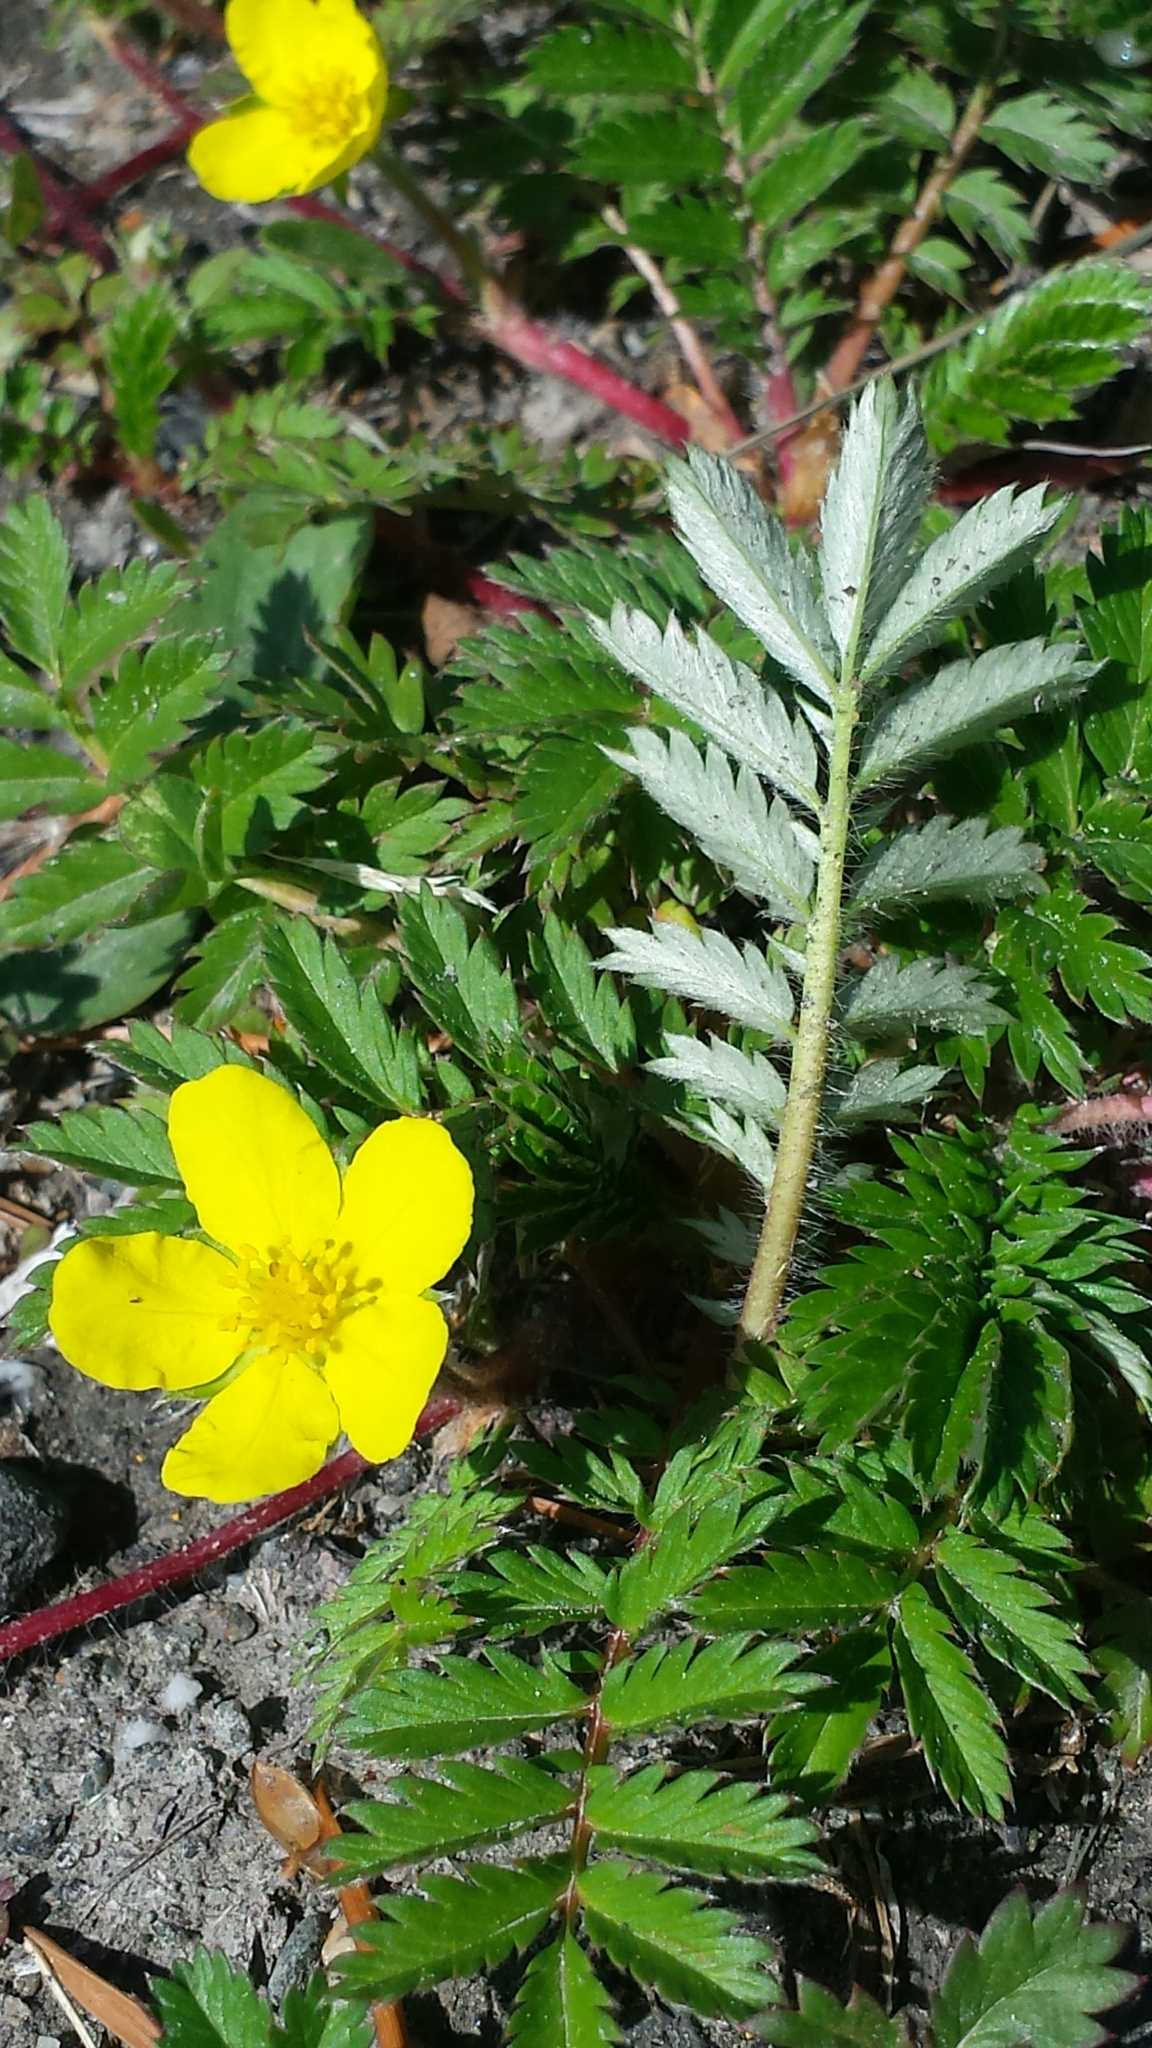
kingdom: Plantae
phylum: Tracheophyta
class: Magnoliopsida
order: Rosales
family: Rosaceae
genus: Argentina
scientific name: Argentina anserina
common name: Common silverweed
